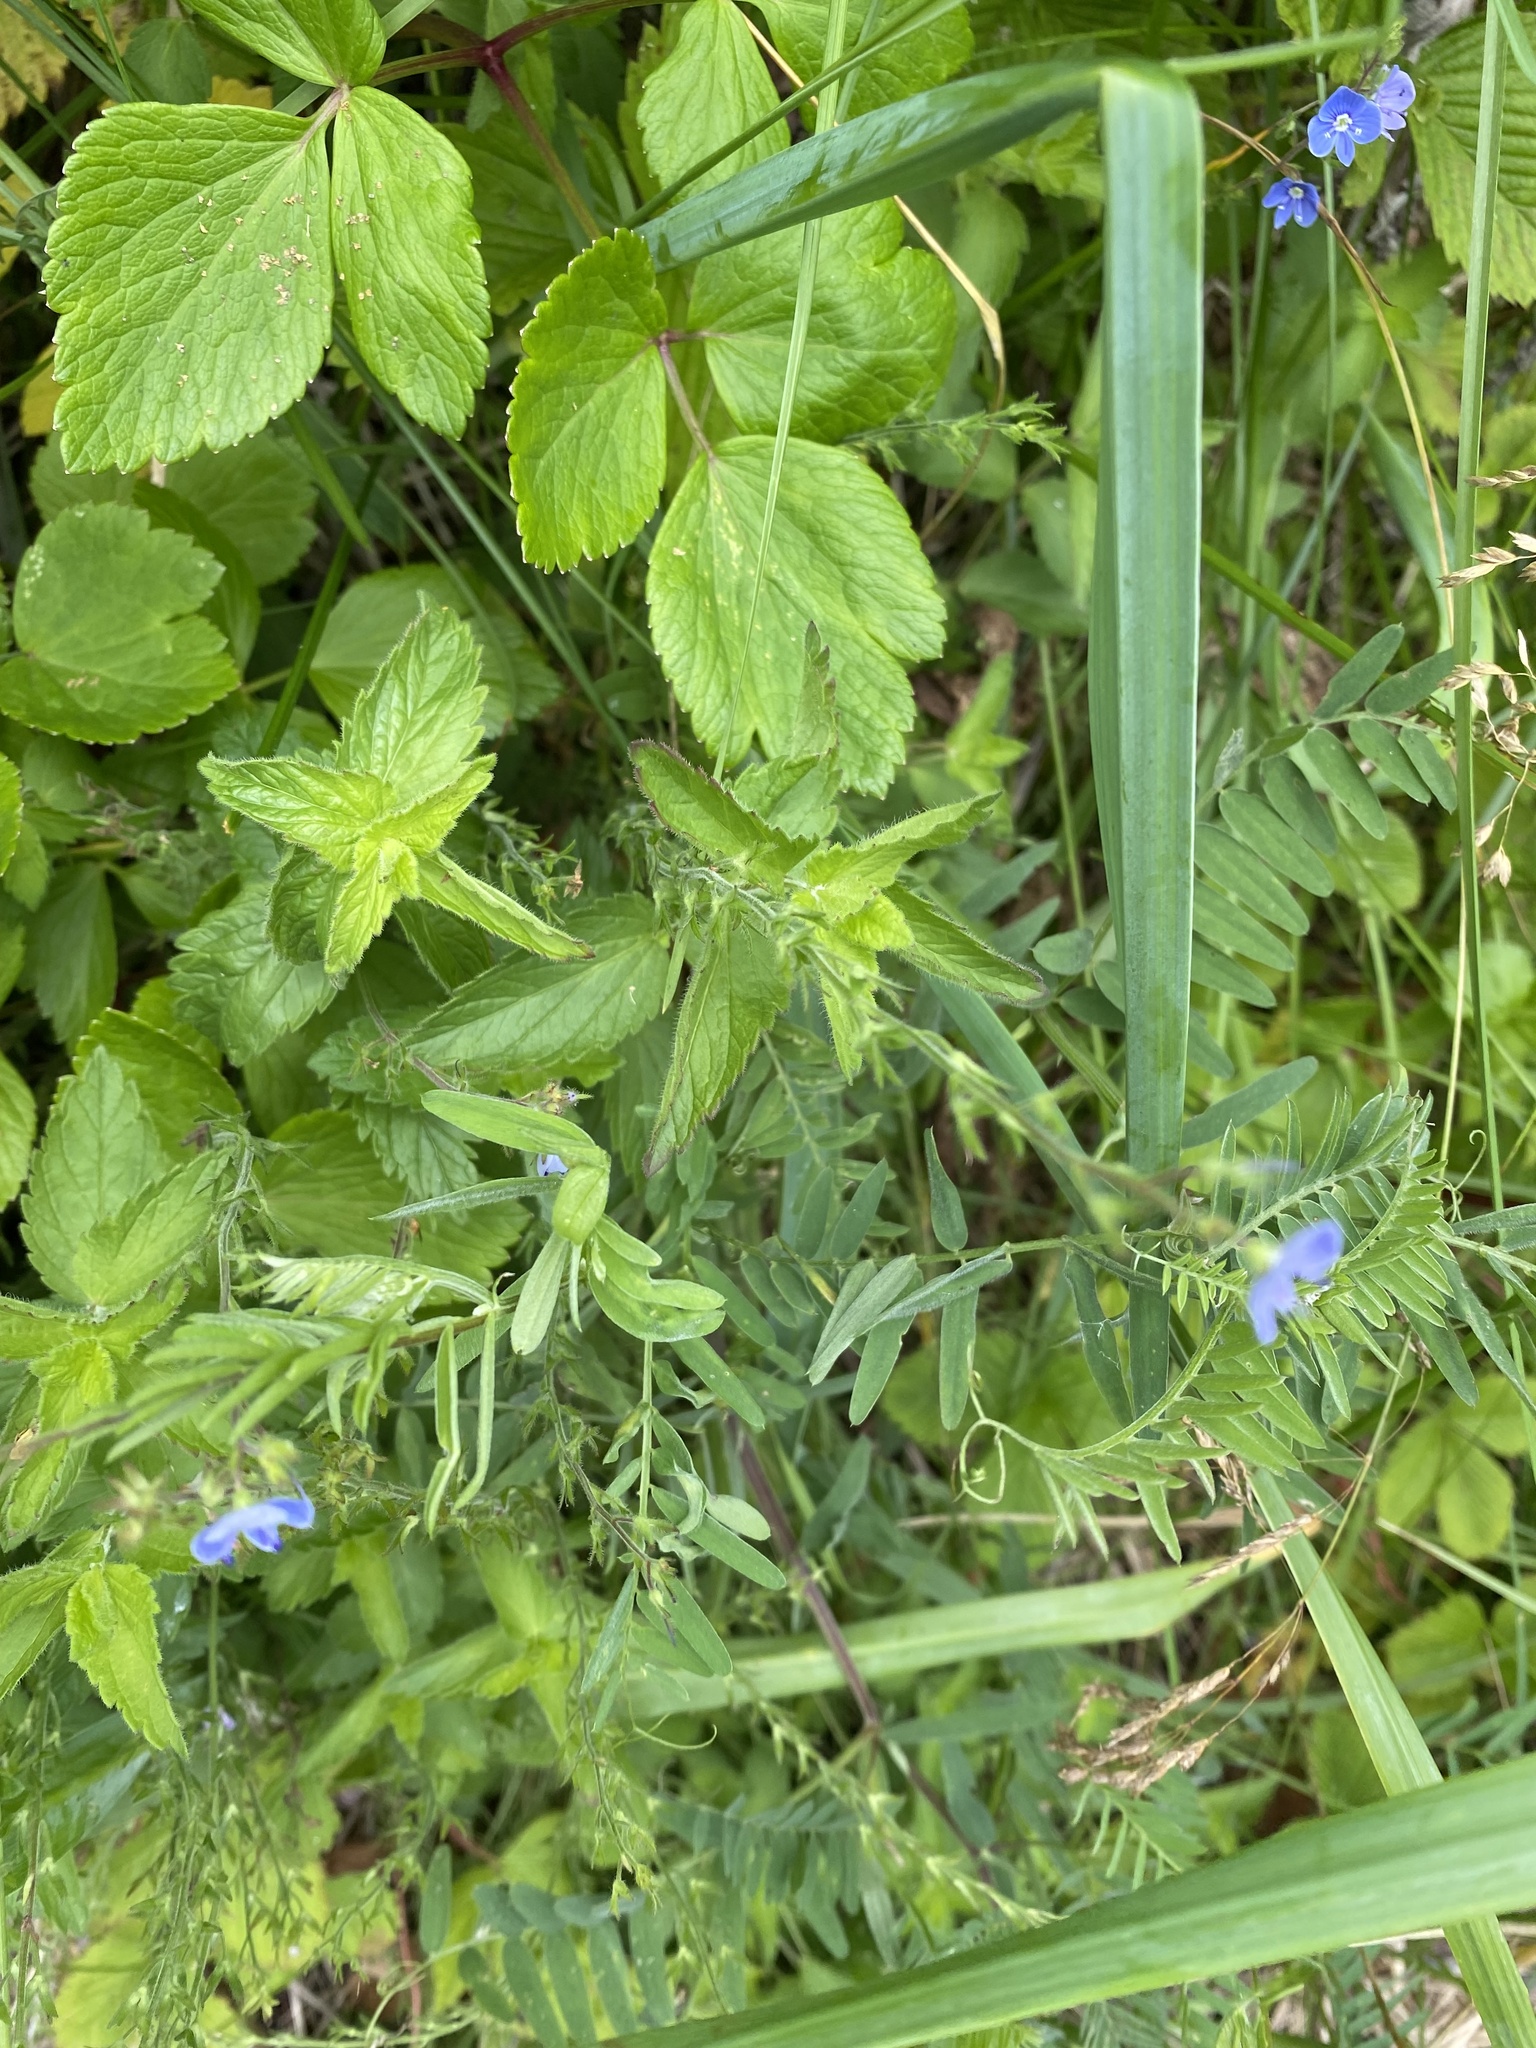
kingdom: Plantae
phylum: Tracheophyta
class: Magnoliopsida
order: Lamiales
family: Plantaginaceae
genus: Veronica
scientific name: Veronica chamaedrys
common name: Germander speedwell
